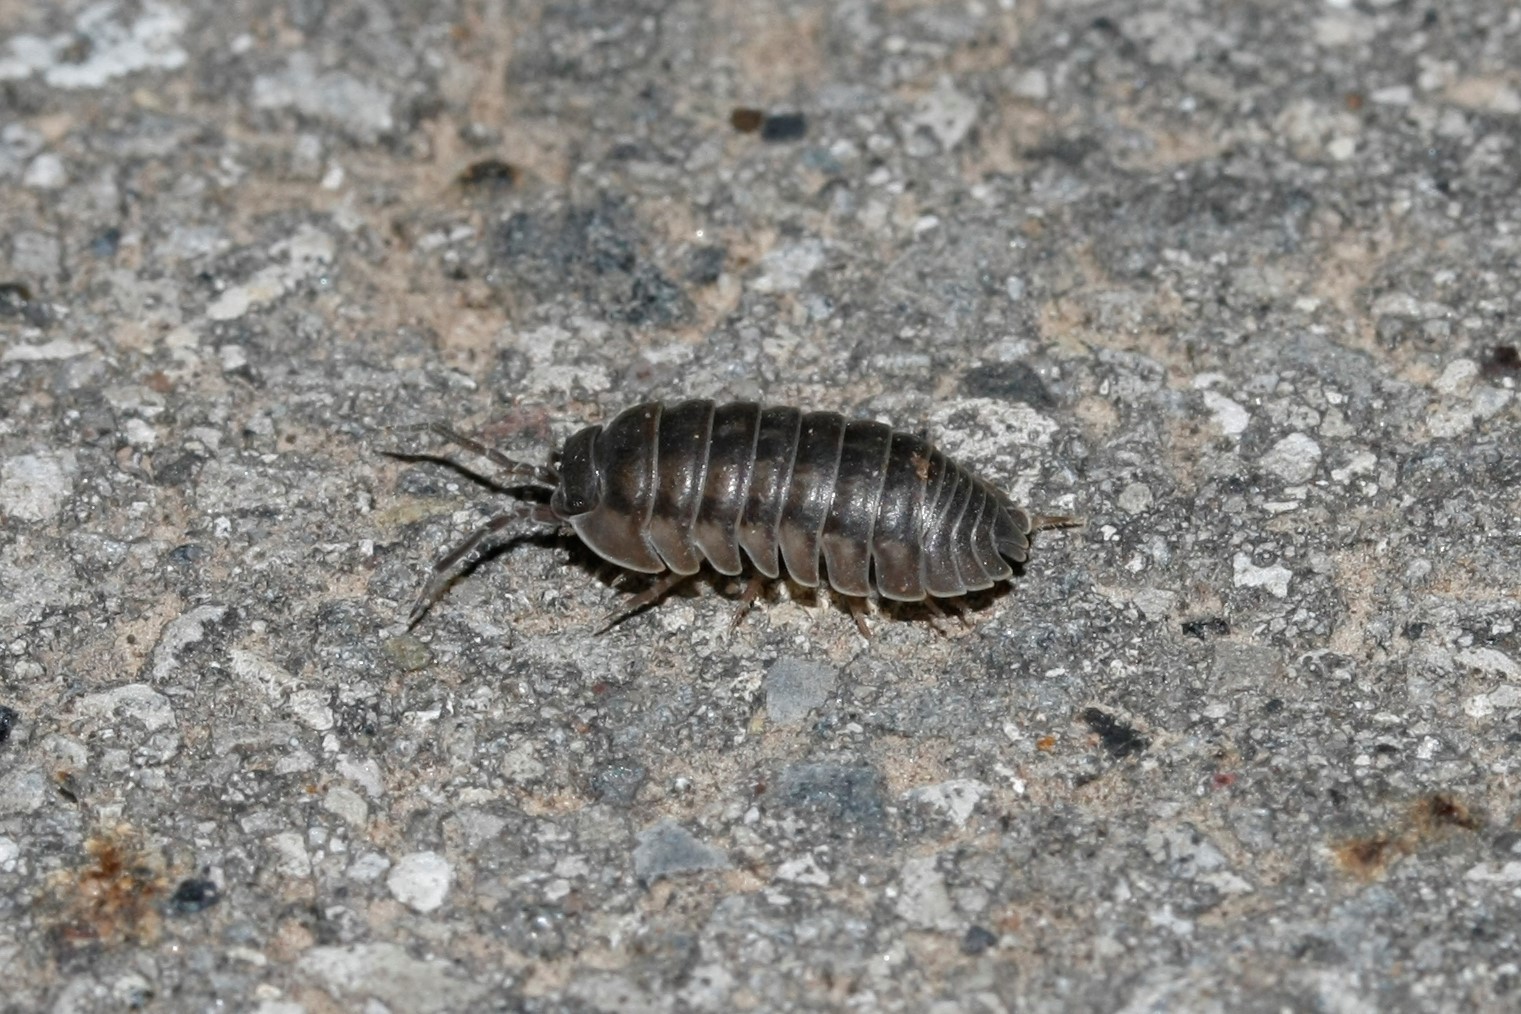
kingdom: Animalia
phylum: Arthropoda
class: Malacostraca
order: Isopoda
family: Armadillidiidae
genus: Armadillidium
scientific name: Armadillidium nasatum
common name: Isopod
